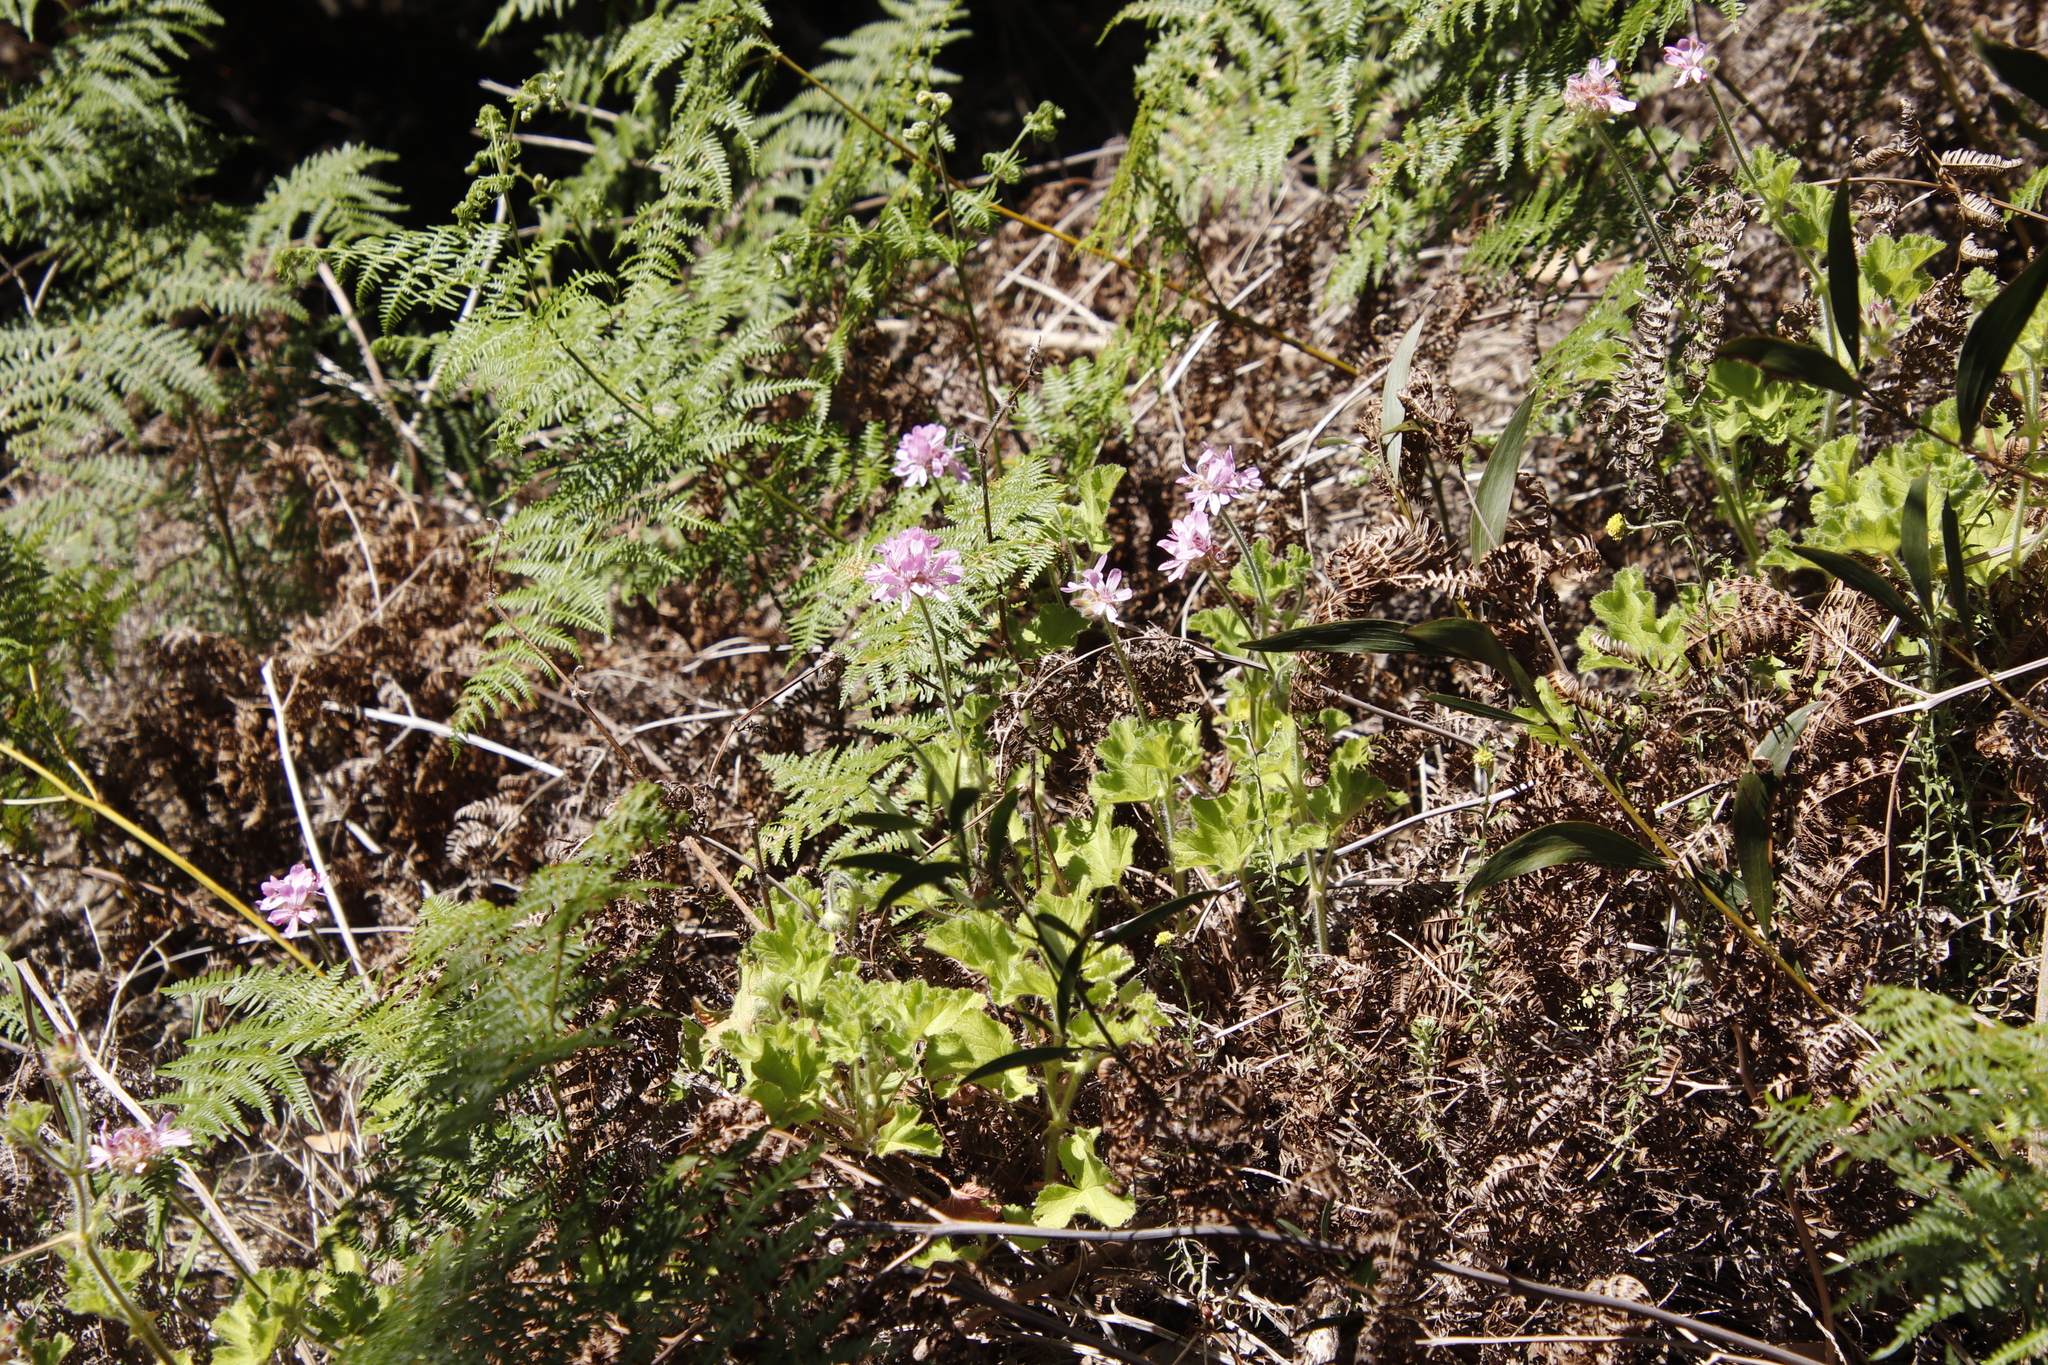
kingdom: Plantae
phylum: Tracheophyta
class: Magnoliopsida
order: Geraniales
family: Geraniaceae
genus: Pelargonium
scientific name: Pelargonium capitatum
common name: Rose scented geranium
